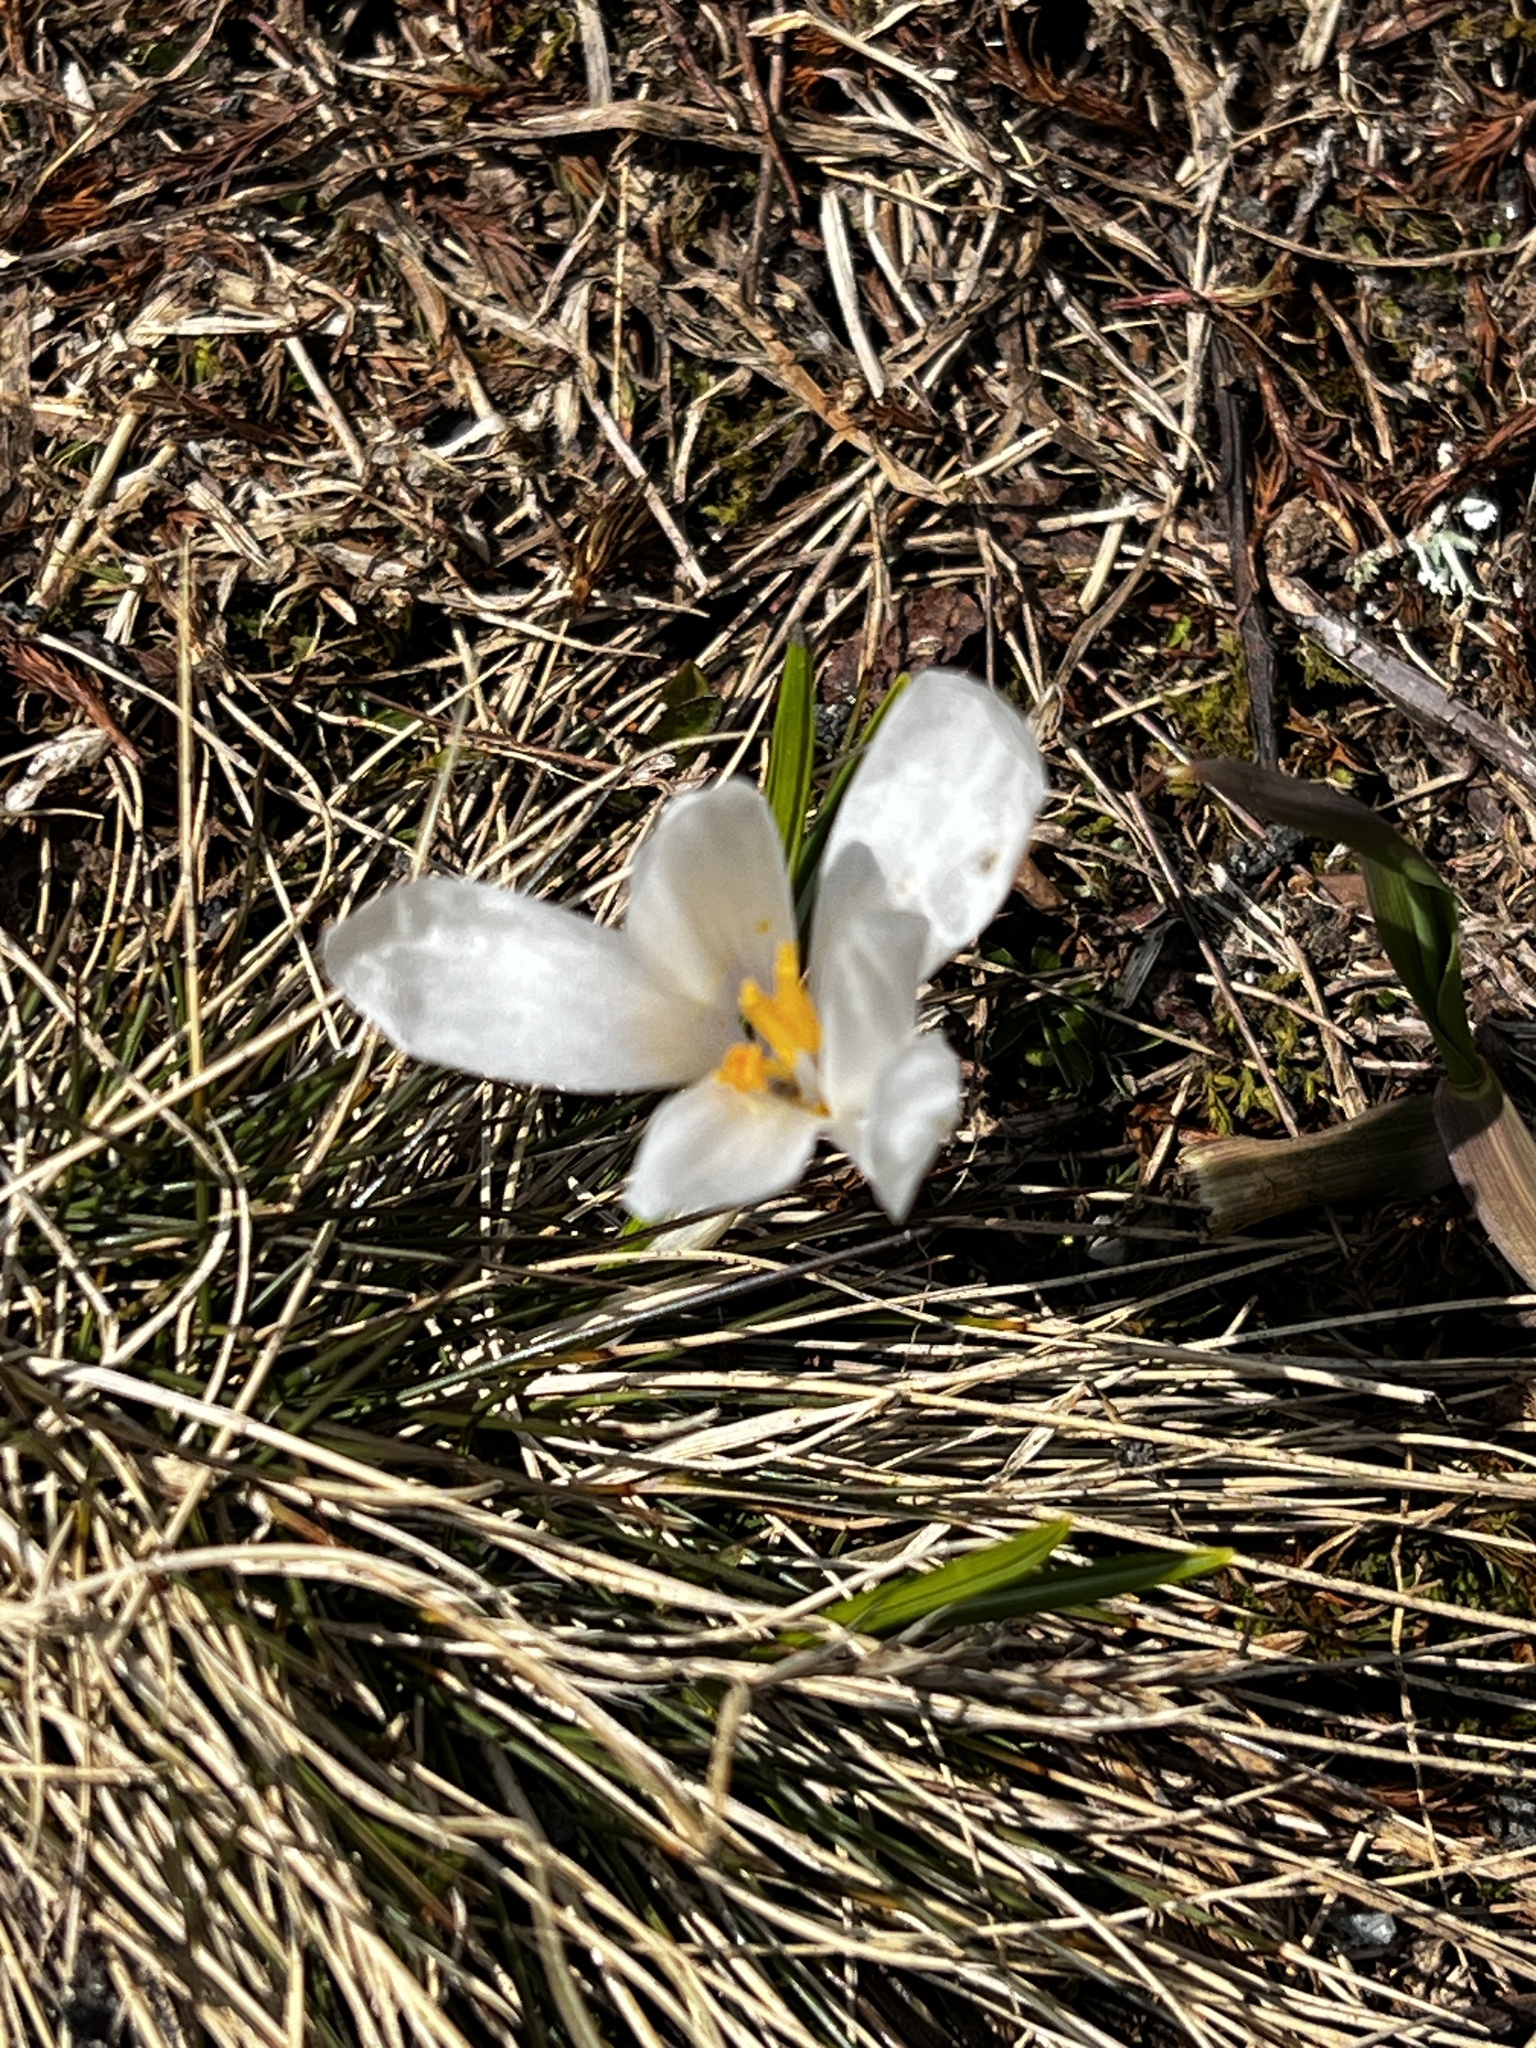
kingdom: Plantae
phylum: Tracheophyta
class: Liliopsida
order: Asparagales
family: Iridaceae
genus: Crocus
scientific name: Crocus vernus
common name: Spring crocus
